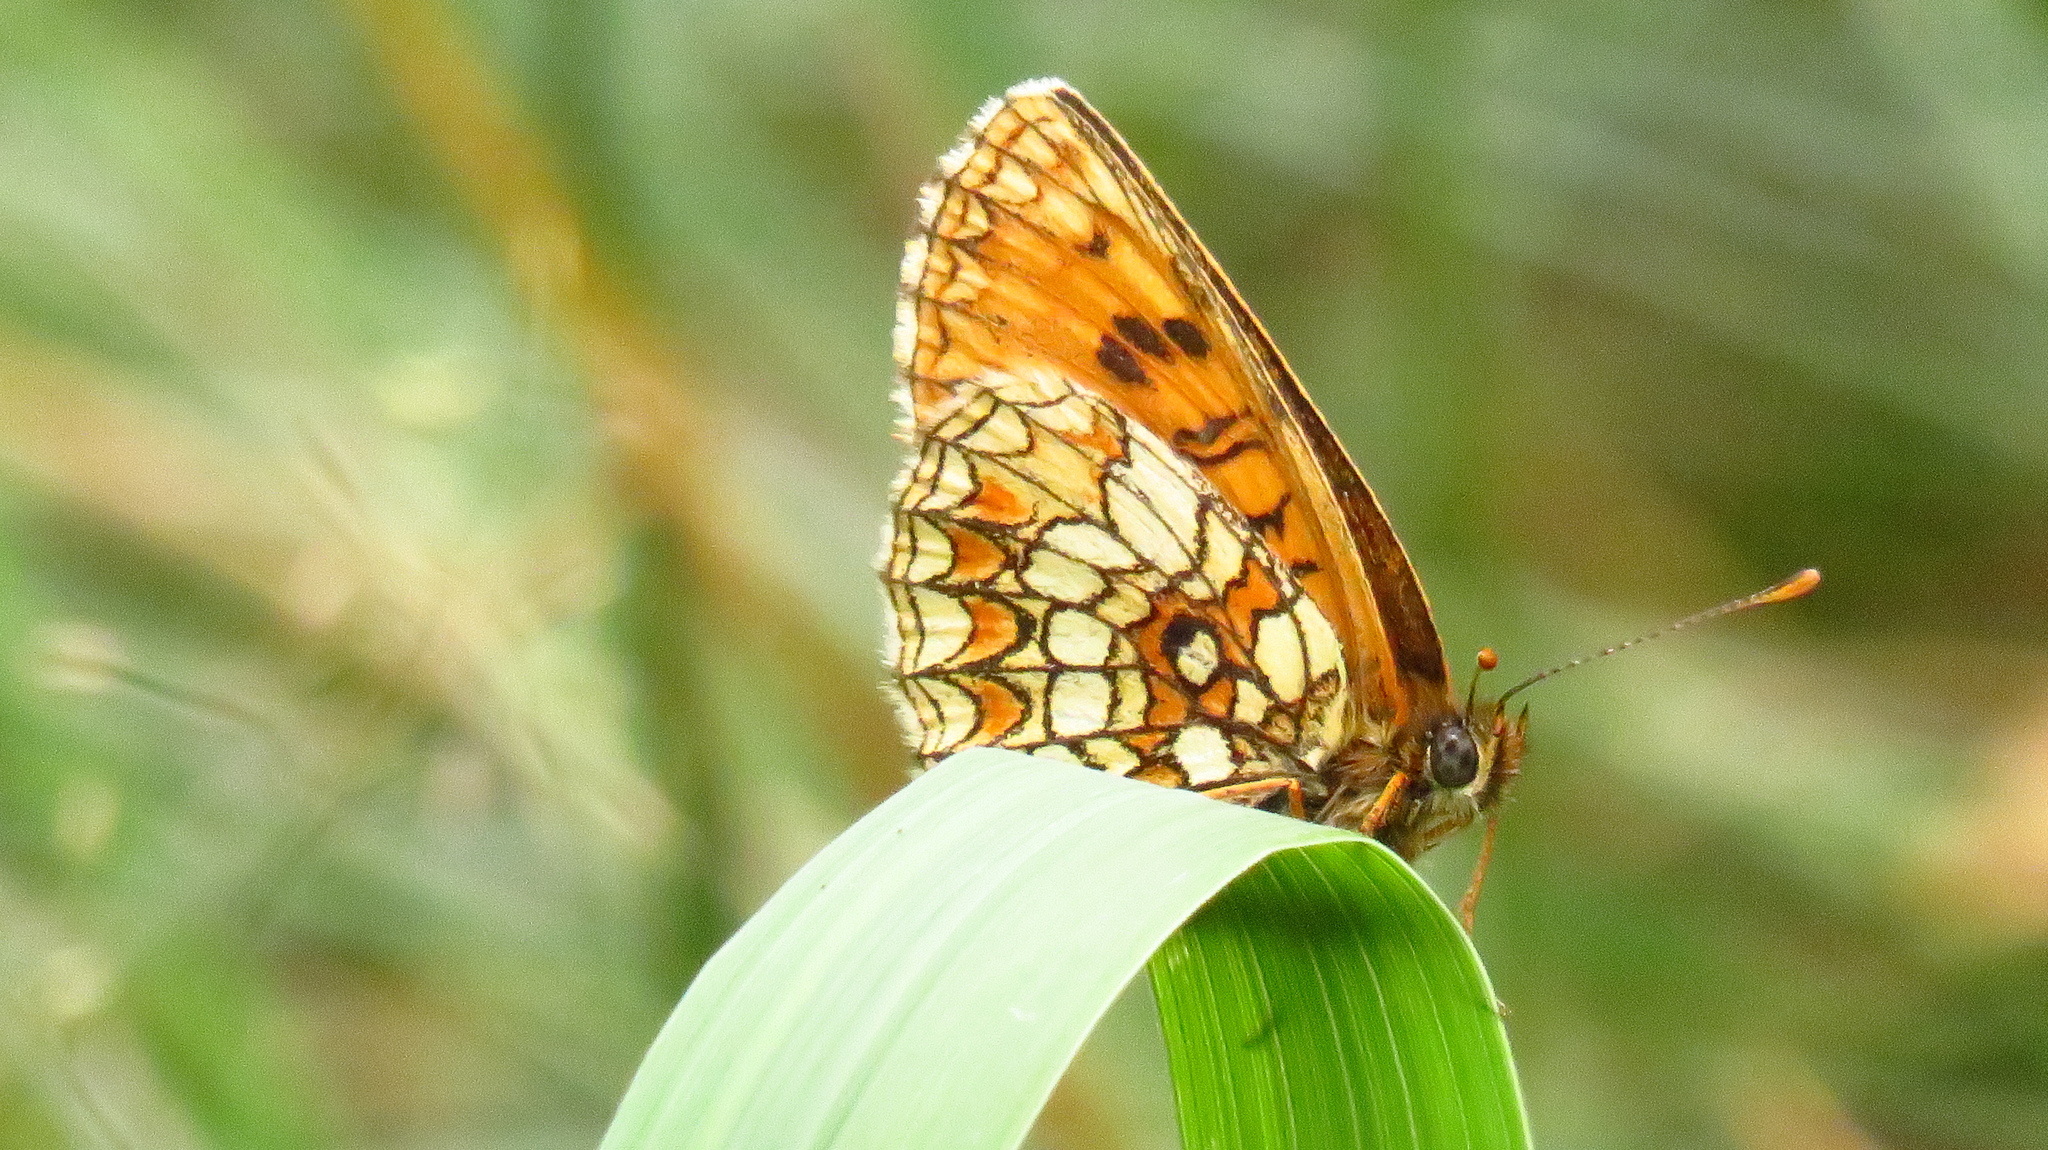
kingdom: Animalia
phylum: Arthropoda
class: Insecta
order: Lepidoptera
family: Nymphalidae
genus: Melitaea
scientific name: Melitaea athalia
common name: Heath fritillary
